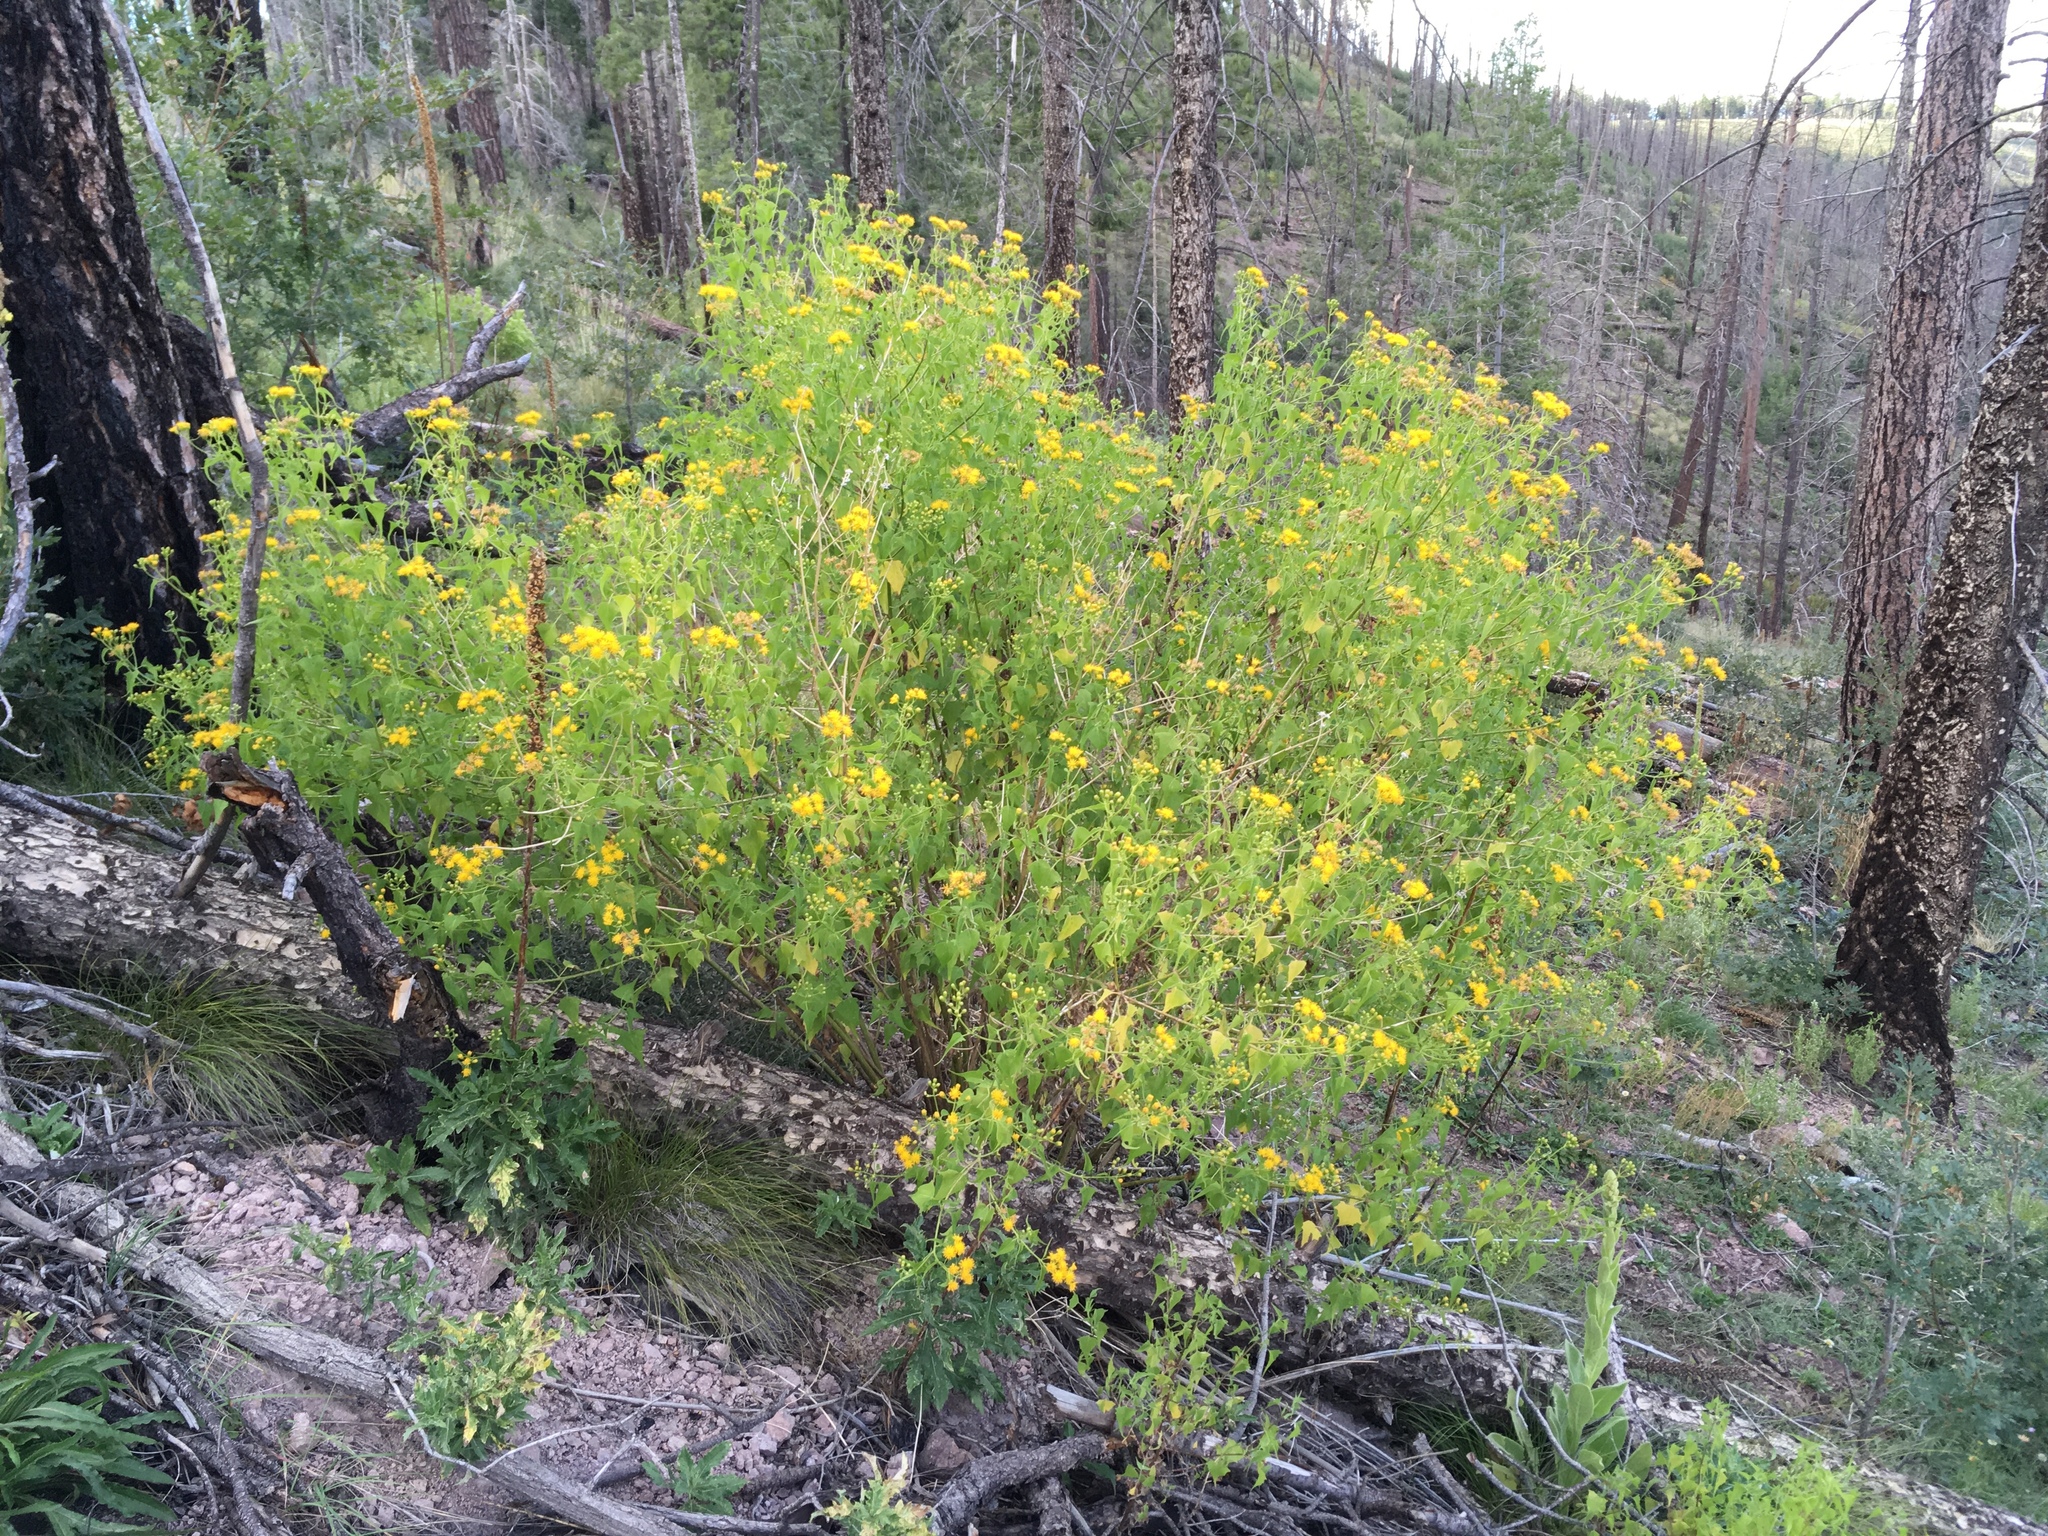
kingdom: Plantae
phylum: Tracheophyta
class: Magnoliopsida
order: Asterales
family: Asteraceae
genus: Pericome
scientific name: Pericome caudata
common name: Taperleaf
